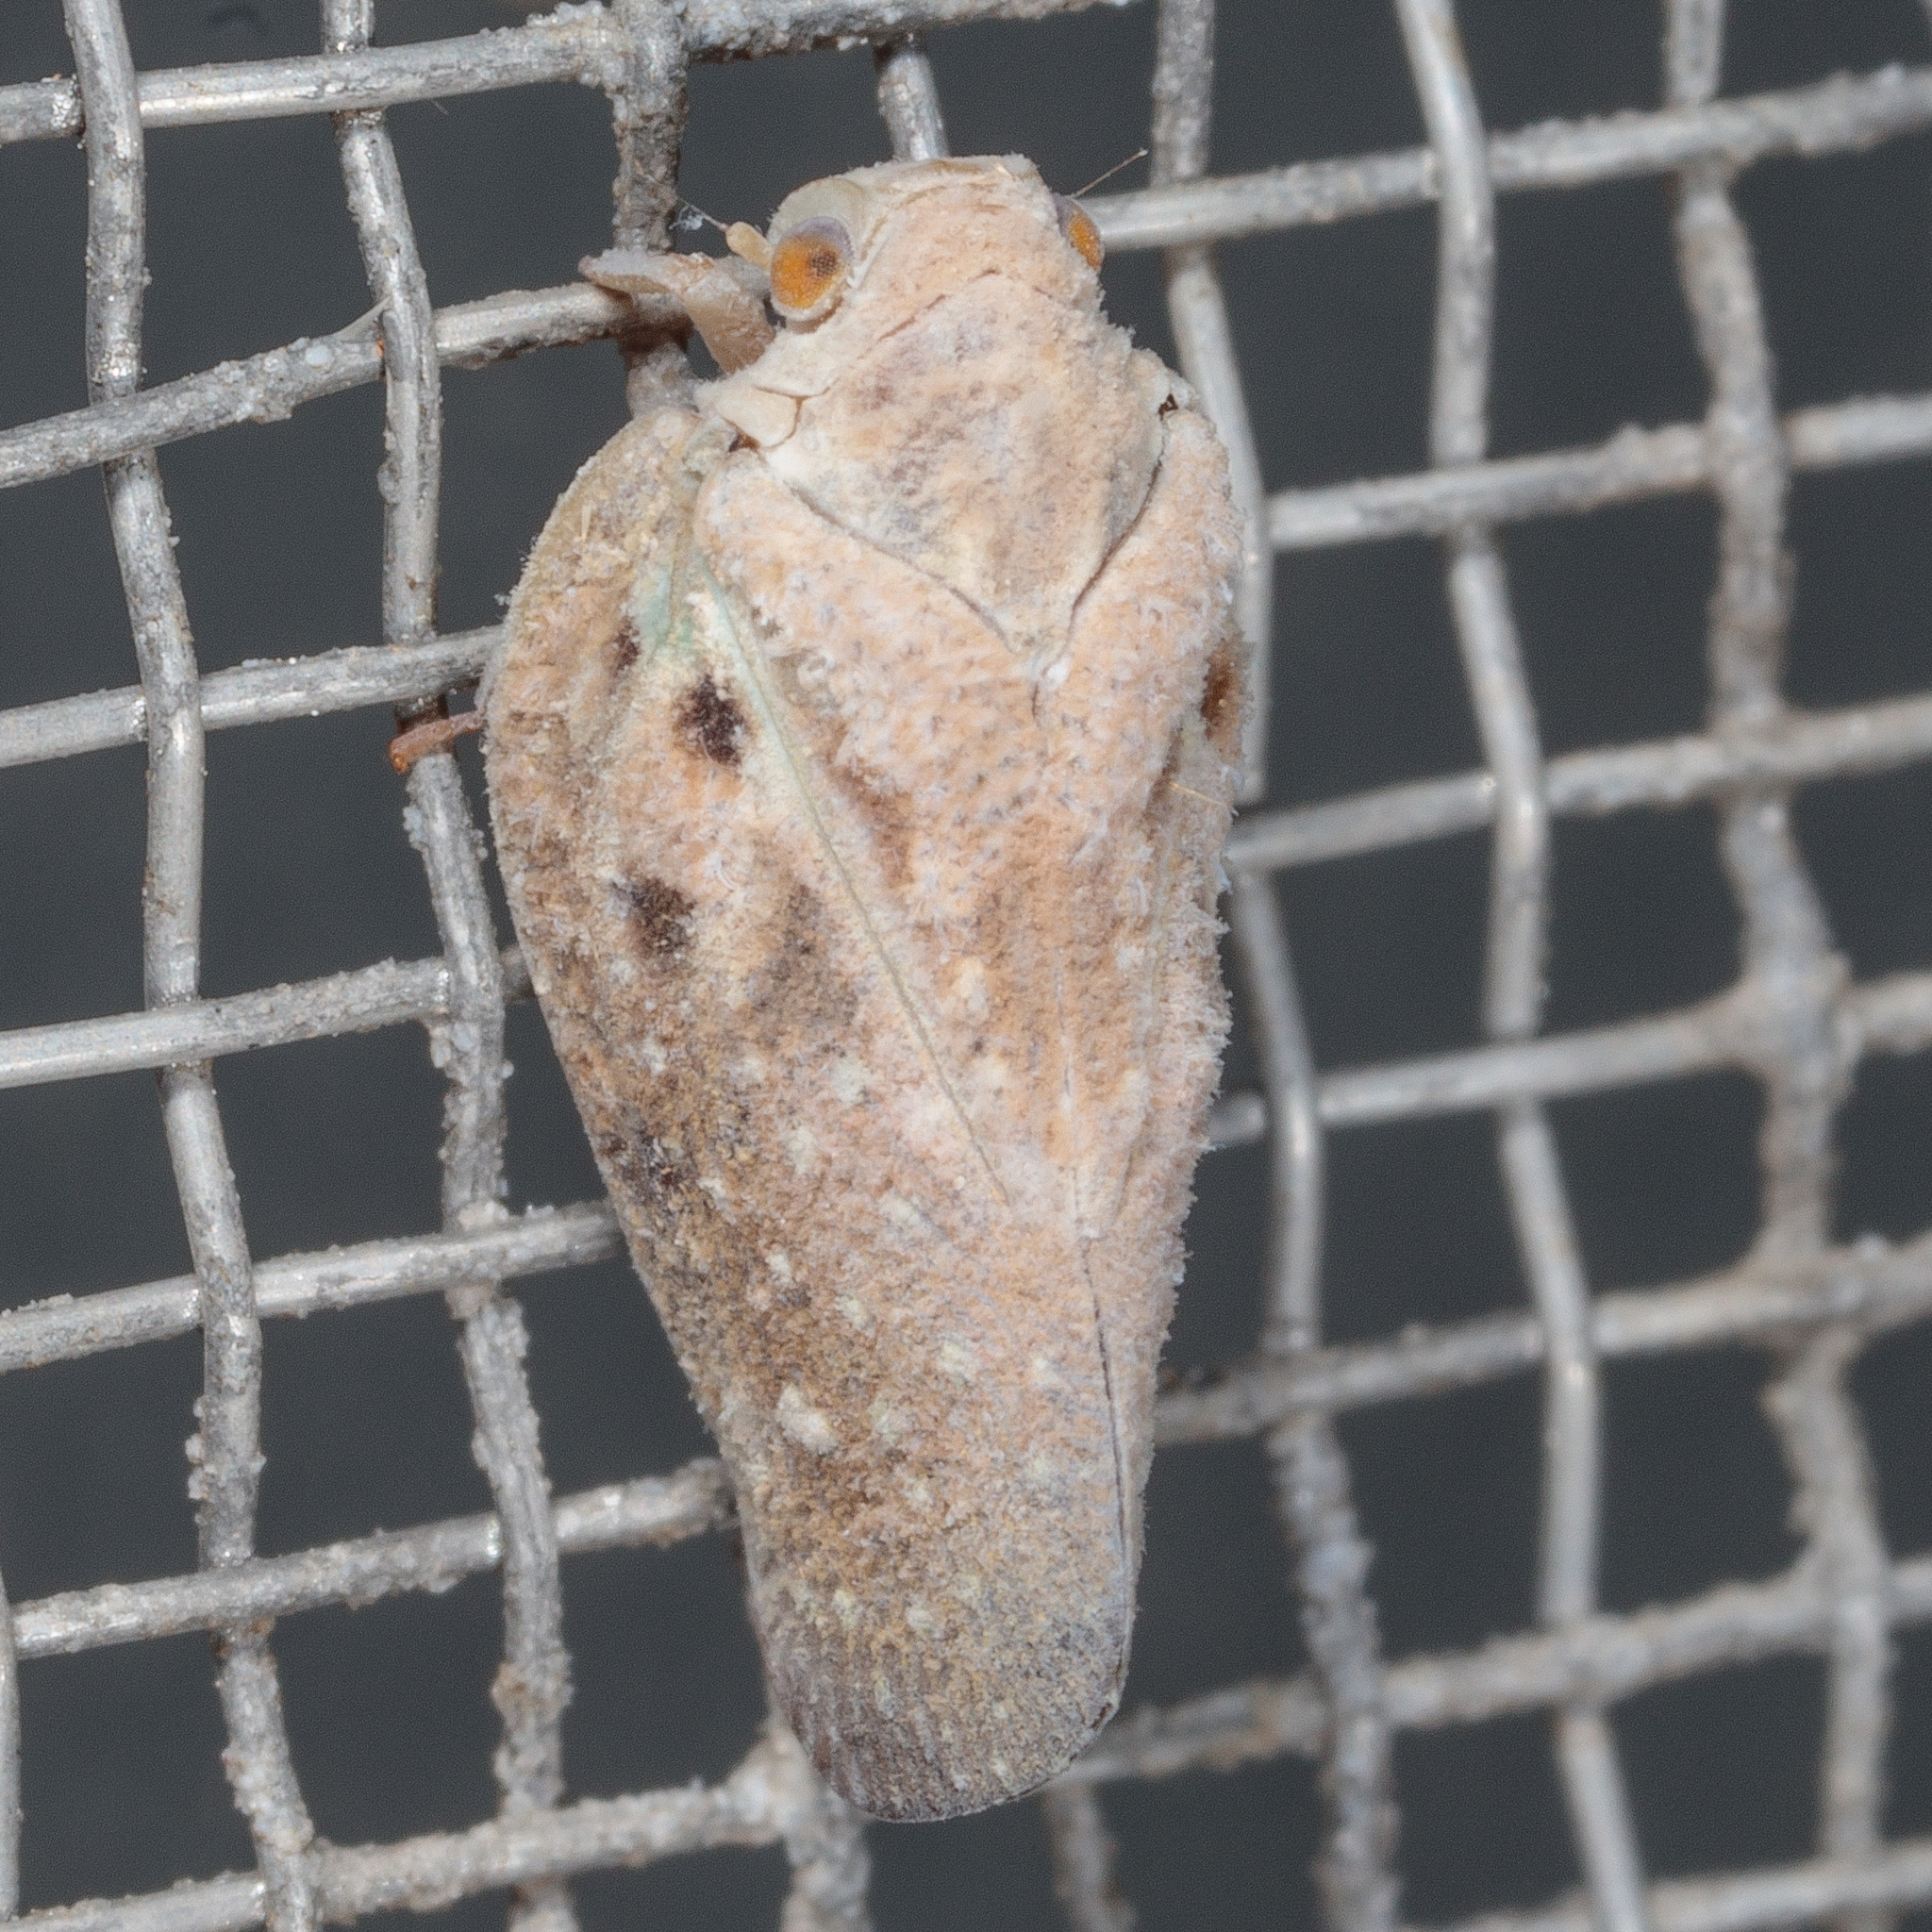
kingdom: Animalia
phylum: Arthropoda
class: Insecta
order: Hemiptera
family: Flatidae
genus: Metcalfa
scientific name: Metcalfa pruinosa
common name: Citrus flatid planthopper
